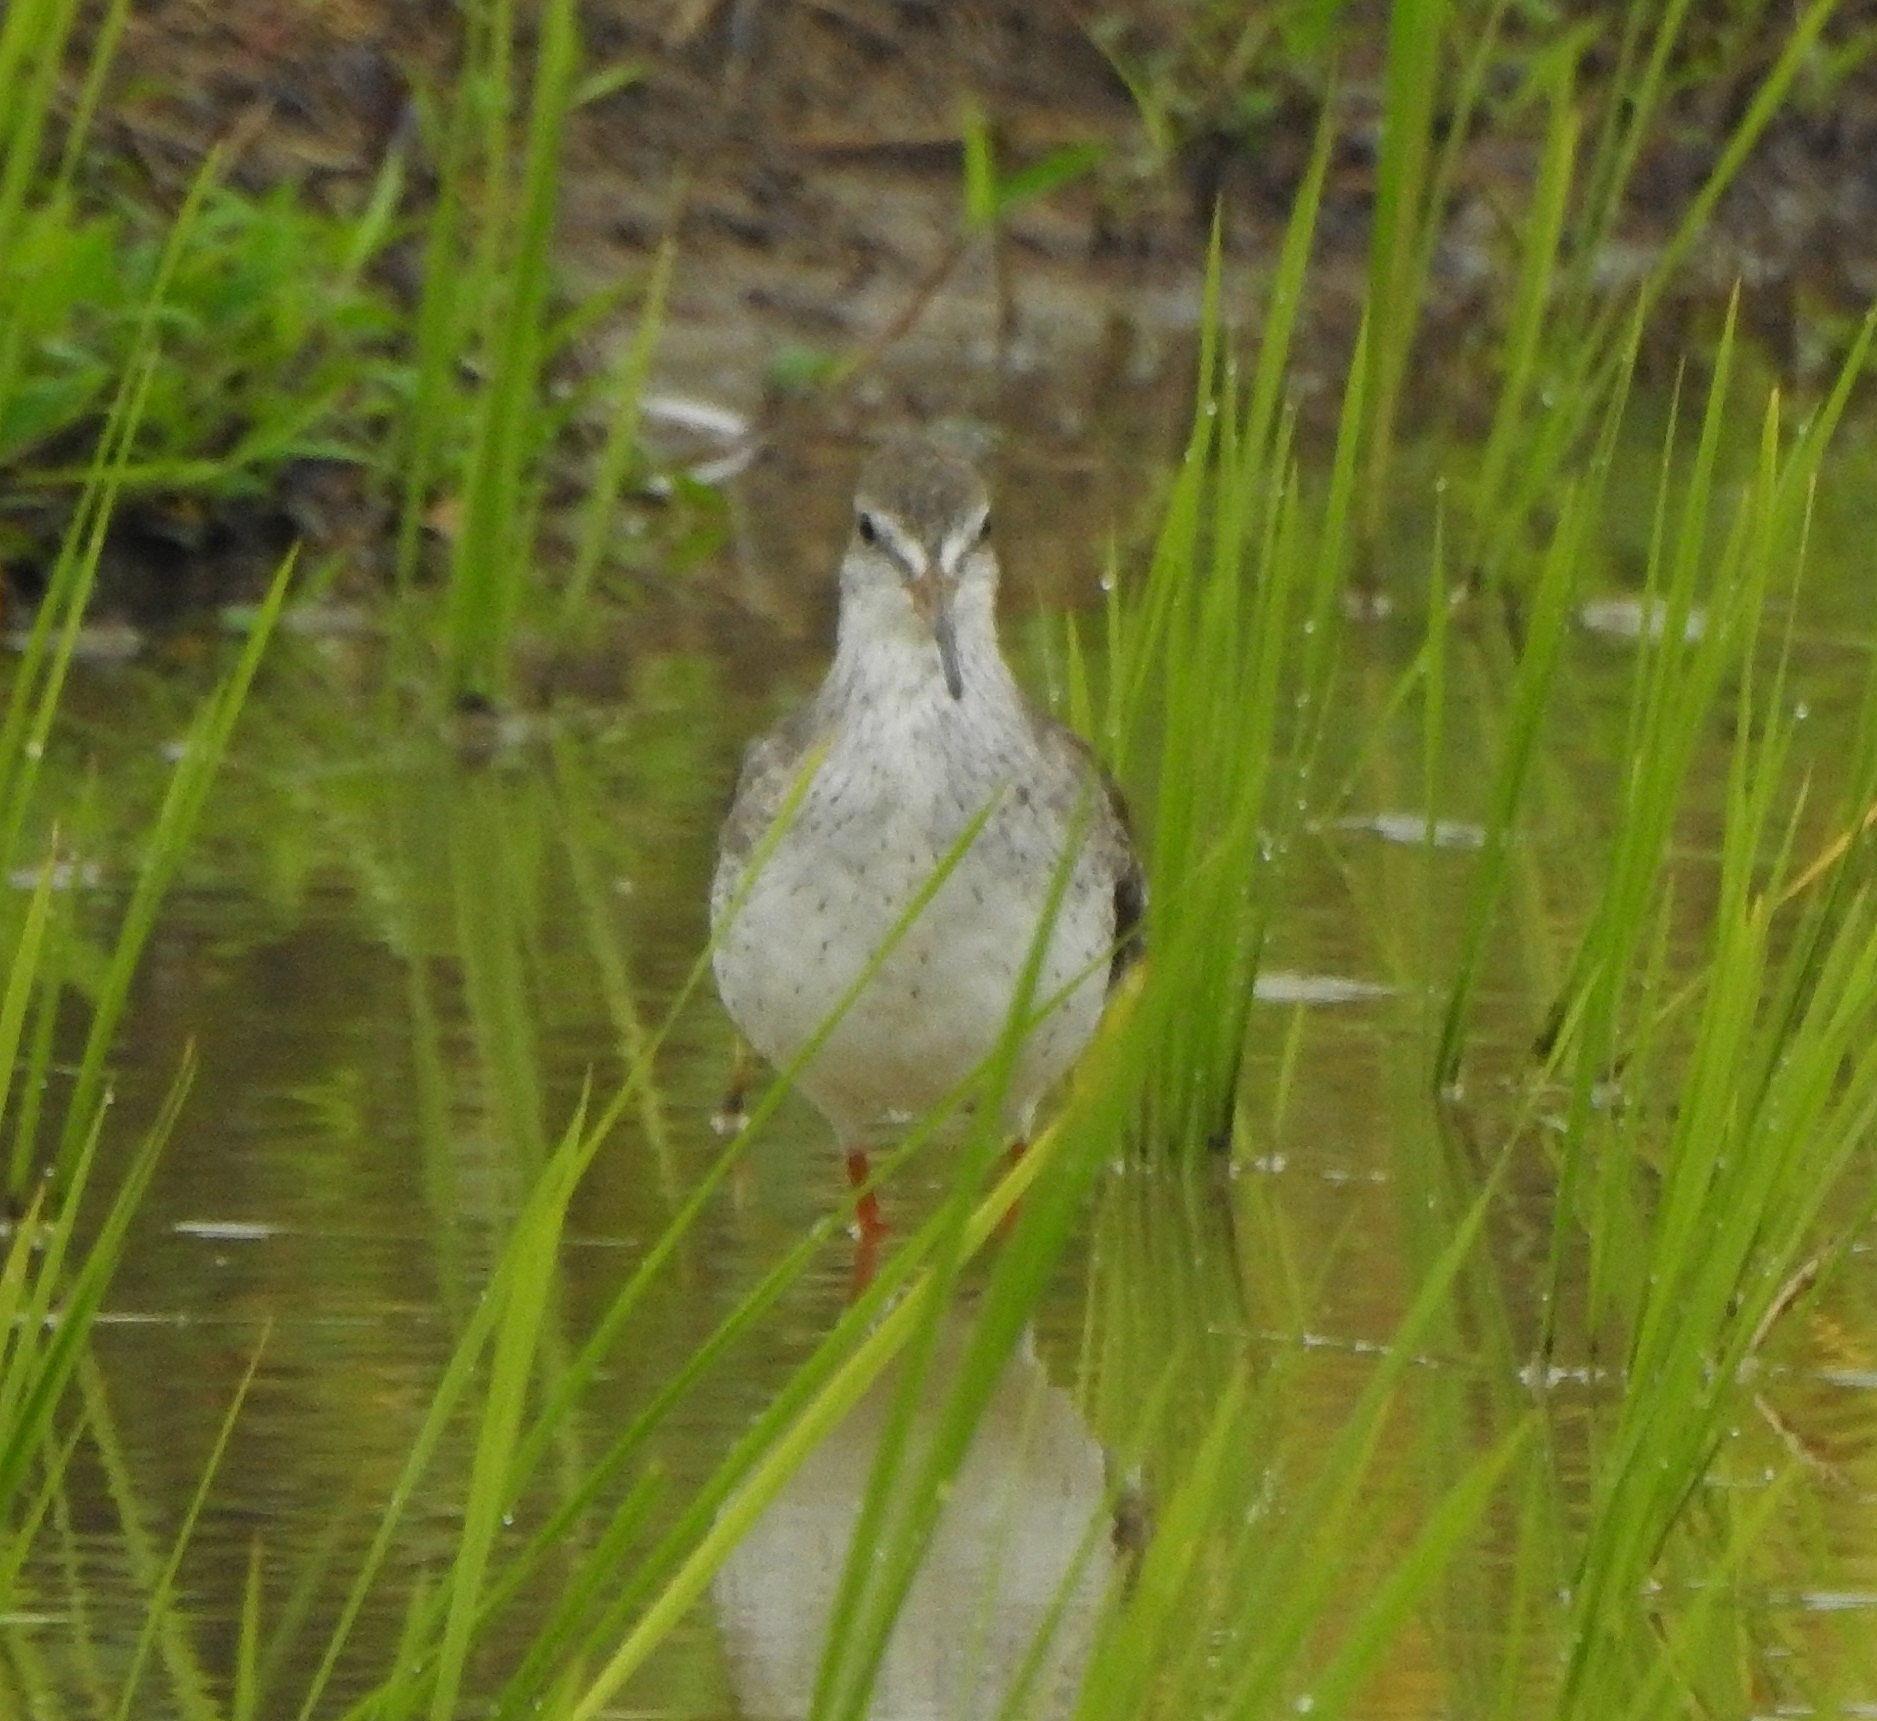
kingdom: Animalia
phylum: Chordata
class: Aves
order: Charadriiformes
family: Scolopacidae
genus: Tringa
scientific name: Tringa totanus
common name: Common redshank
